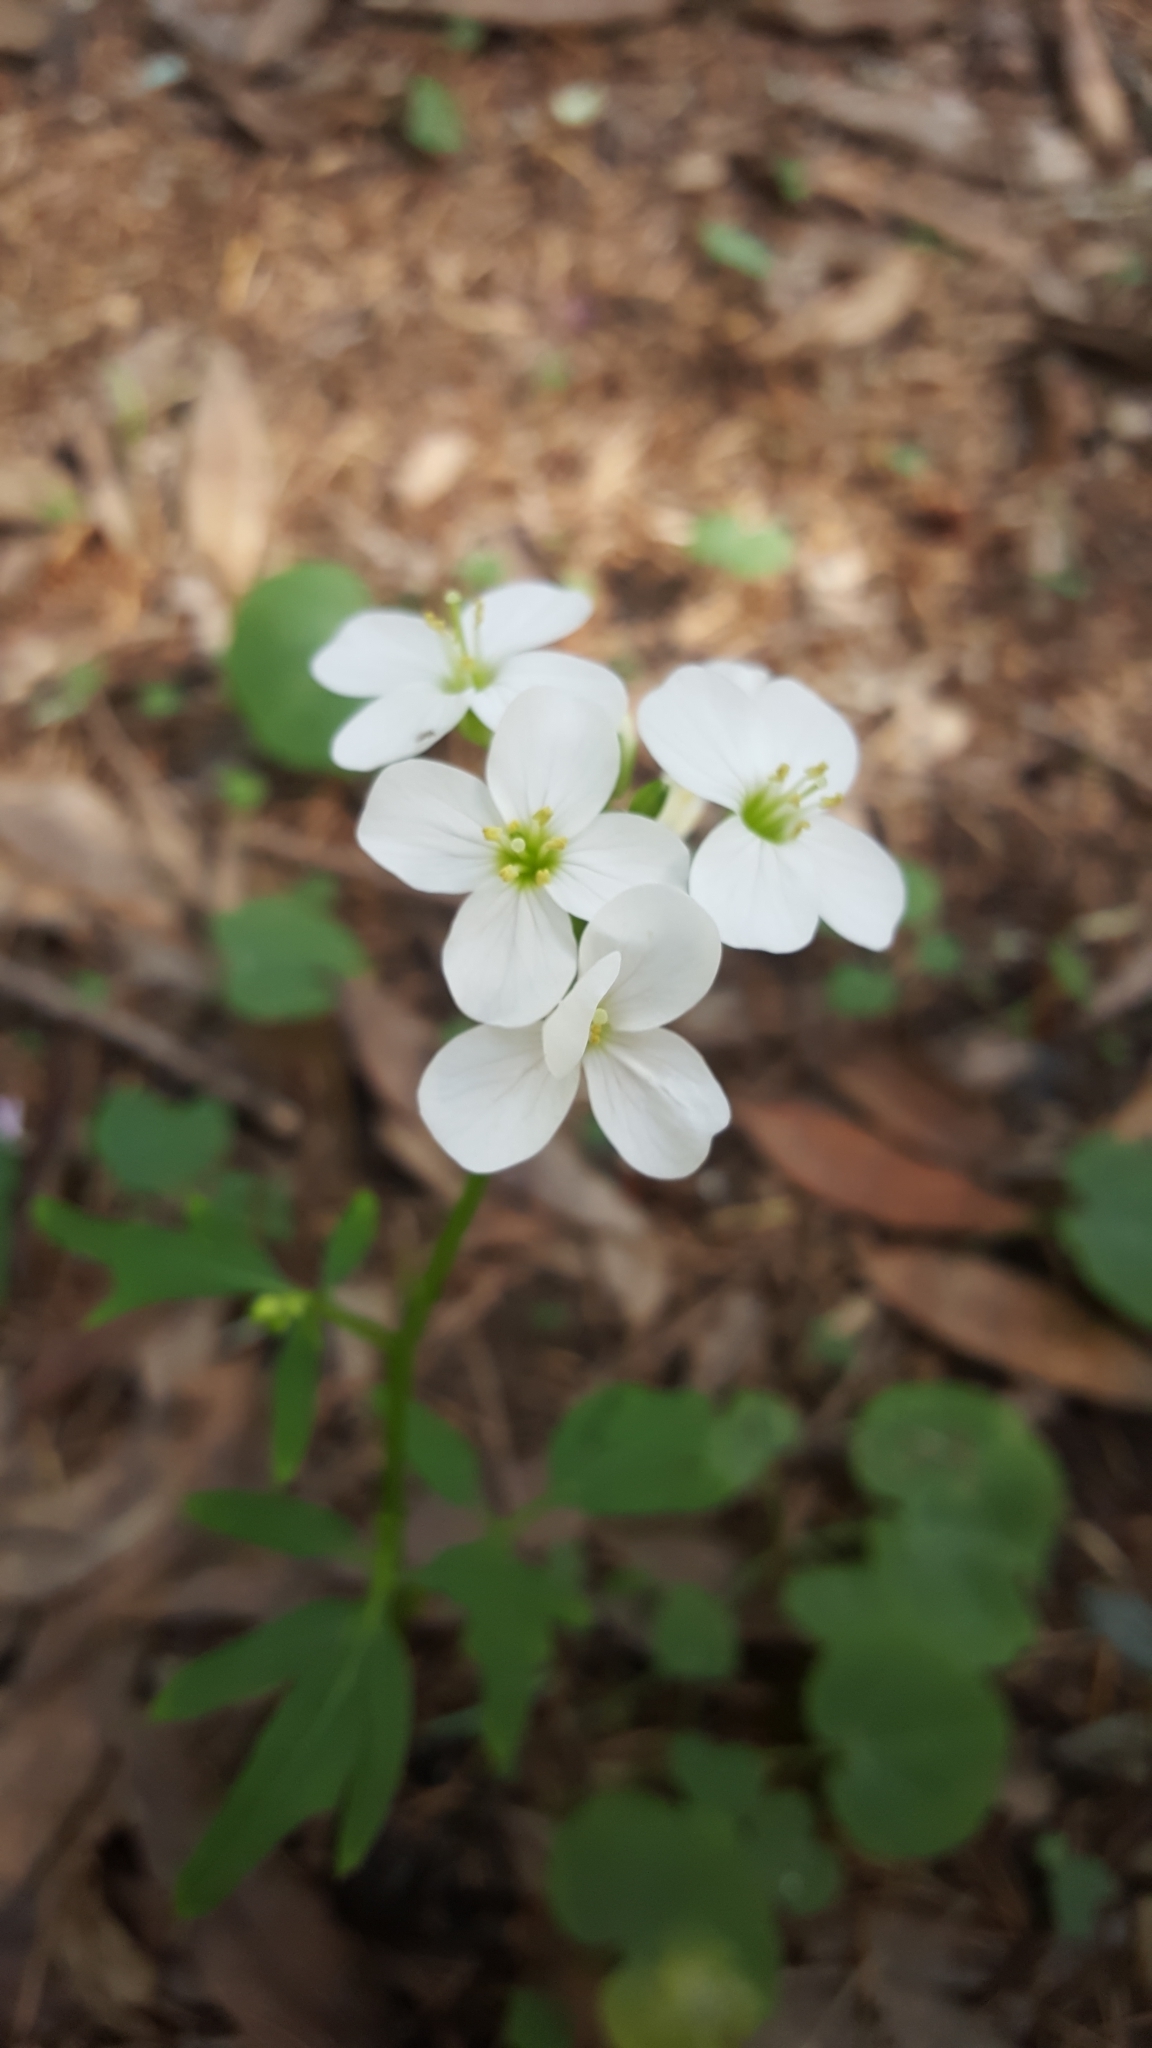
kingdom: Plantae
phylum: Tracheophyta
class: Magnoliopsida
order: Brassicales
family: Brassicaceae
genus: Cardamine
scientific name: Cardamine californica
